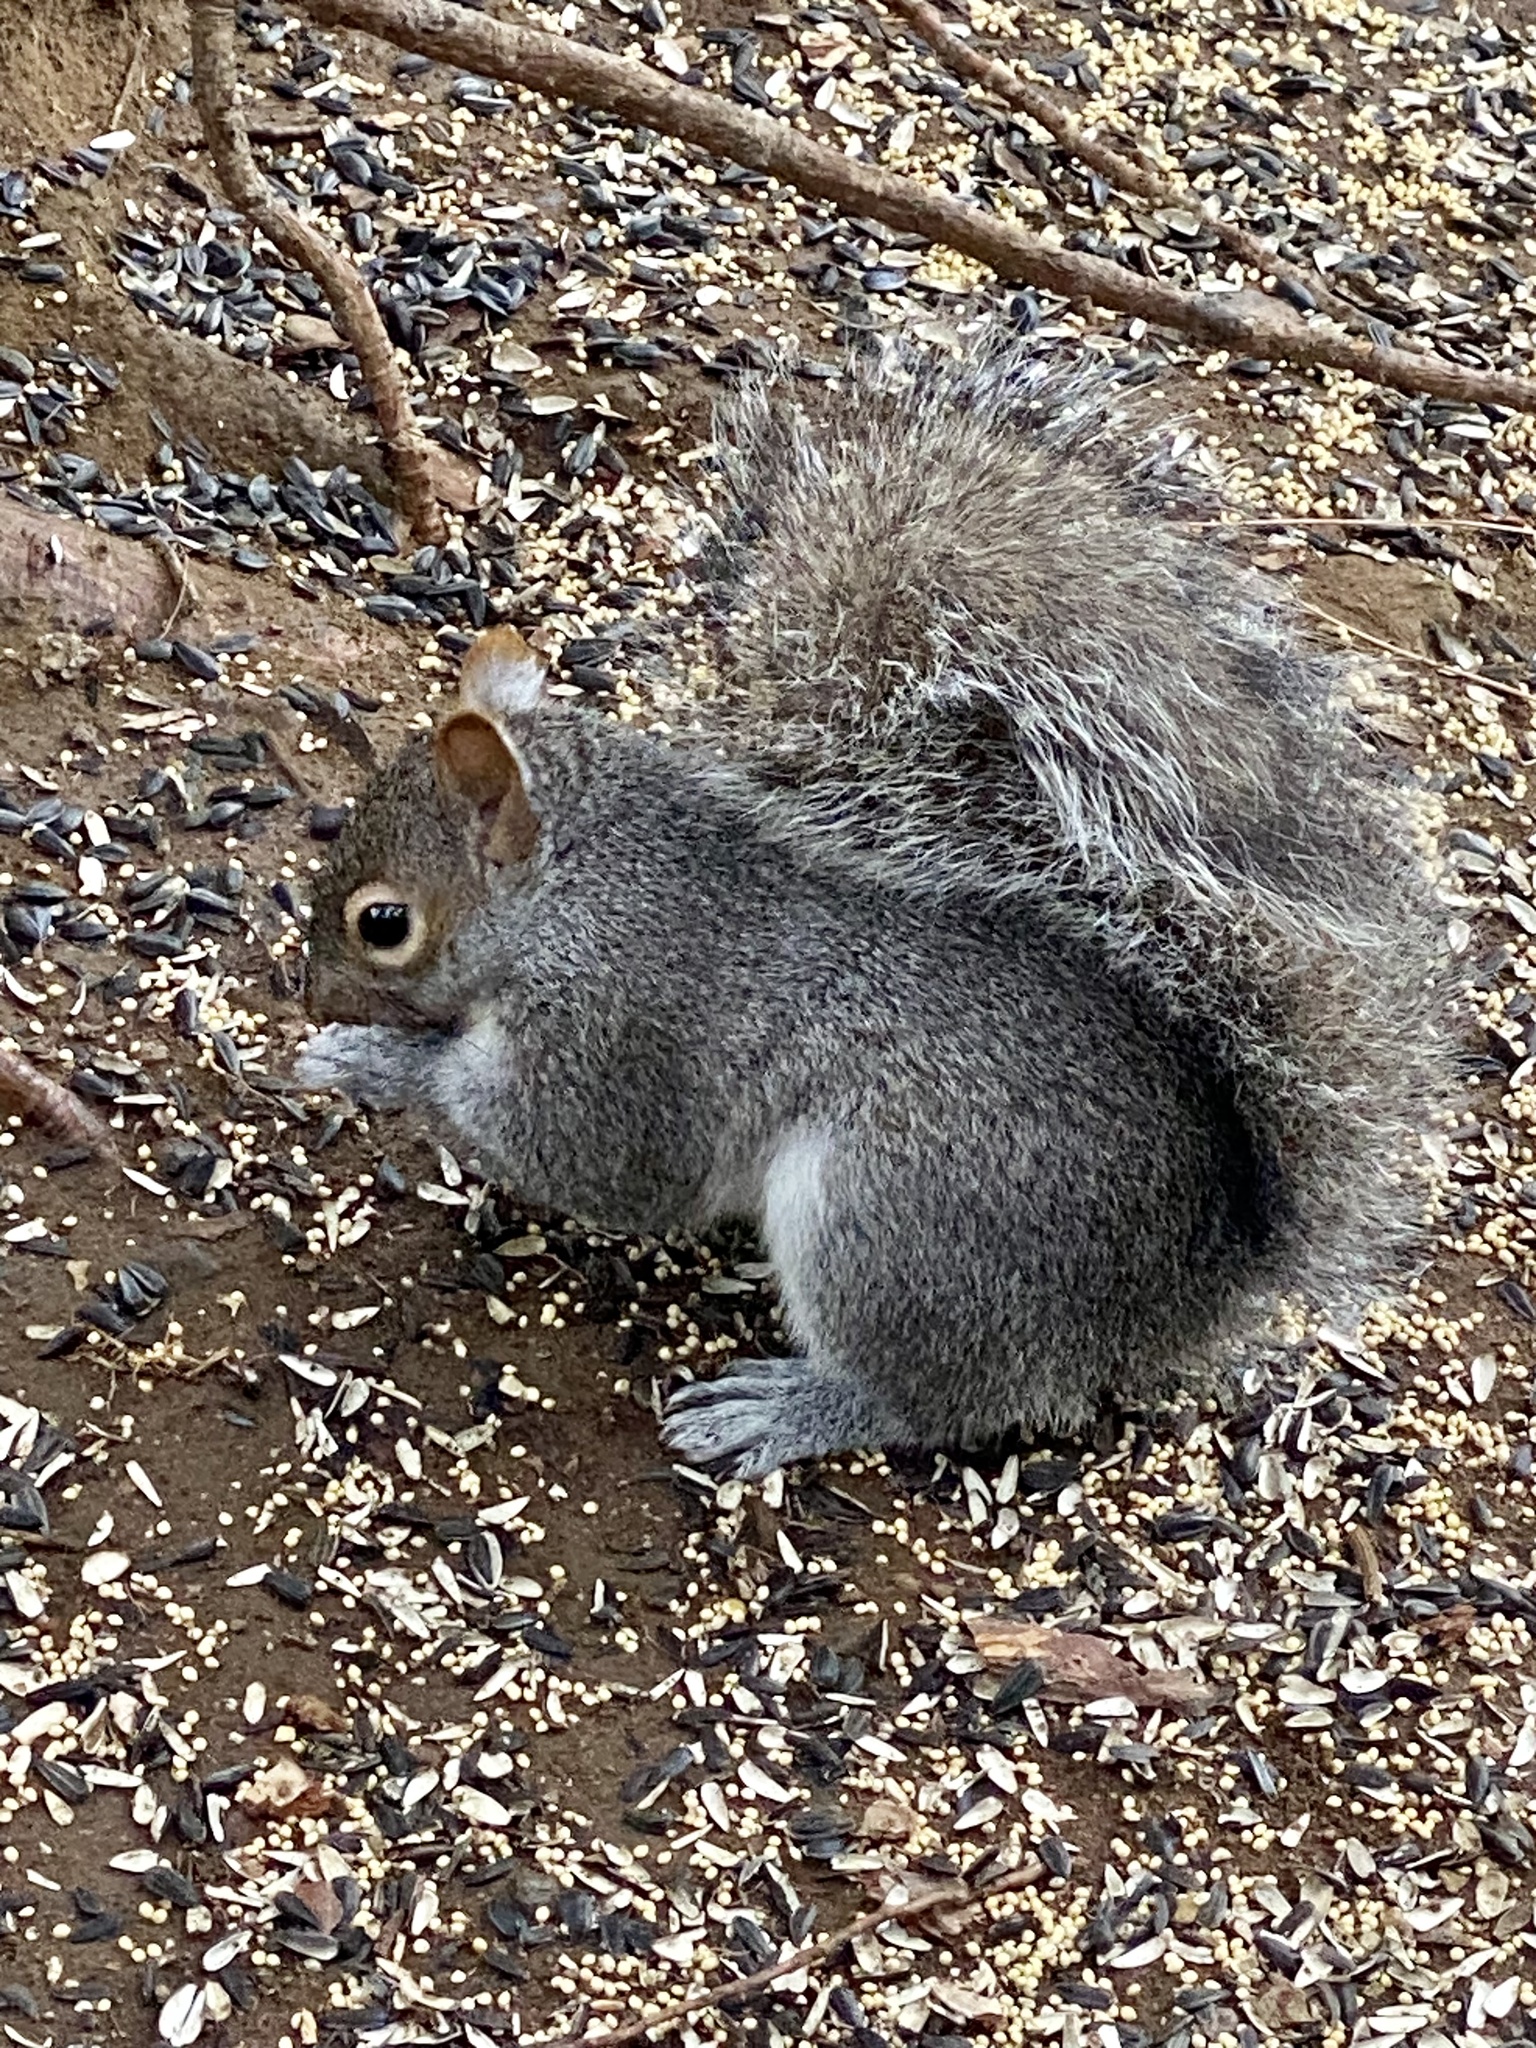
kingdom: Animalia
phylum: Chordata
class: Mammalia
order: Rodentia
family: Sciuridae
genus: Sciurus
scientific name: Sciurus carolinensis
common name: Eastern gray squirrel
